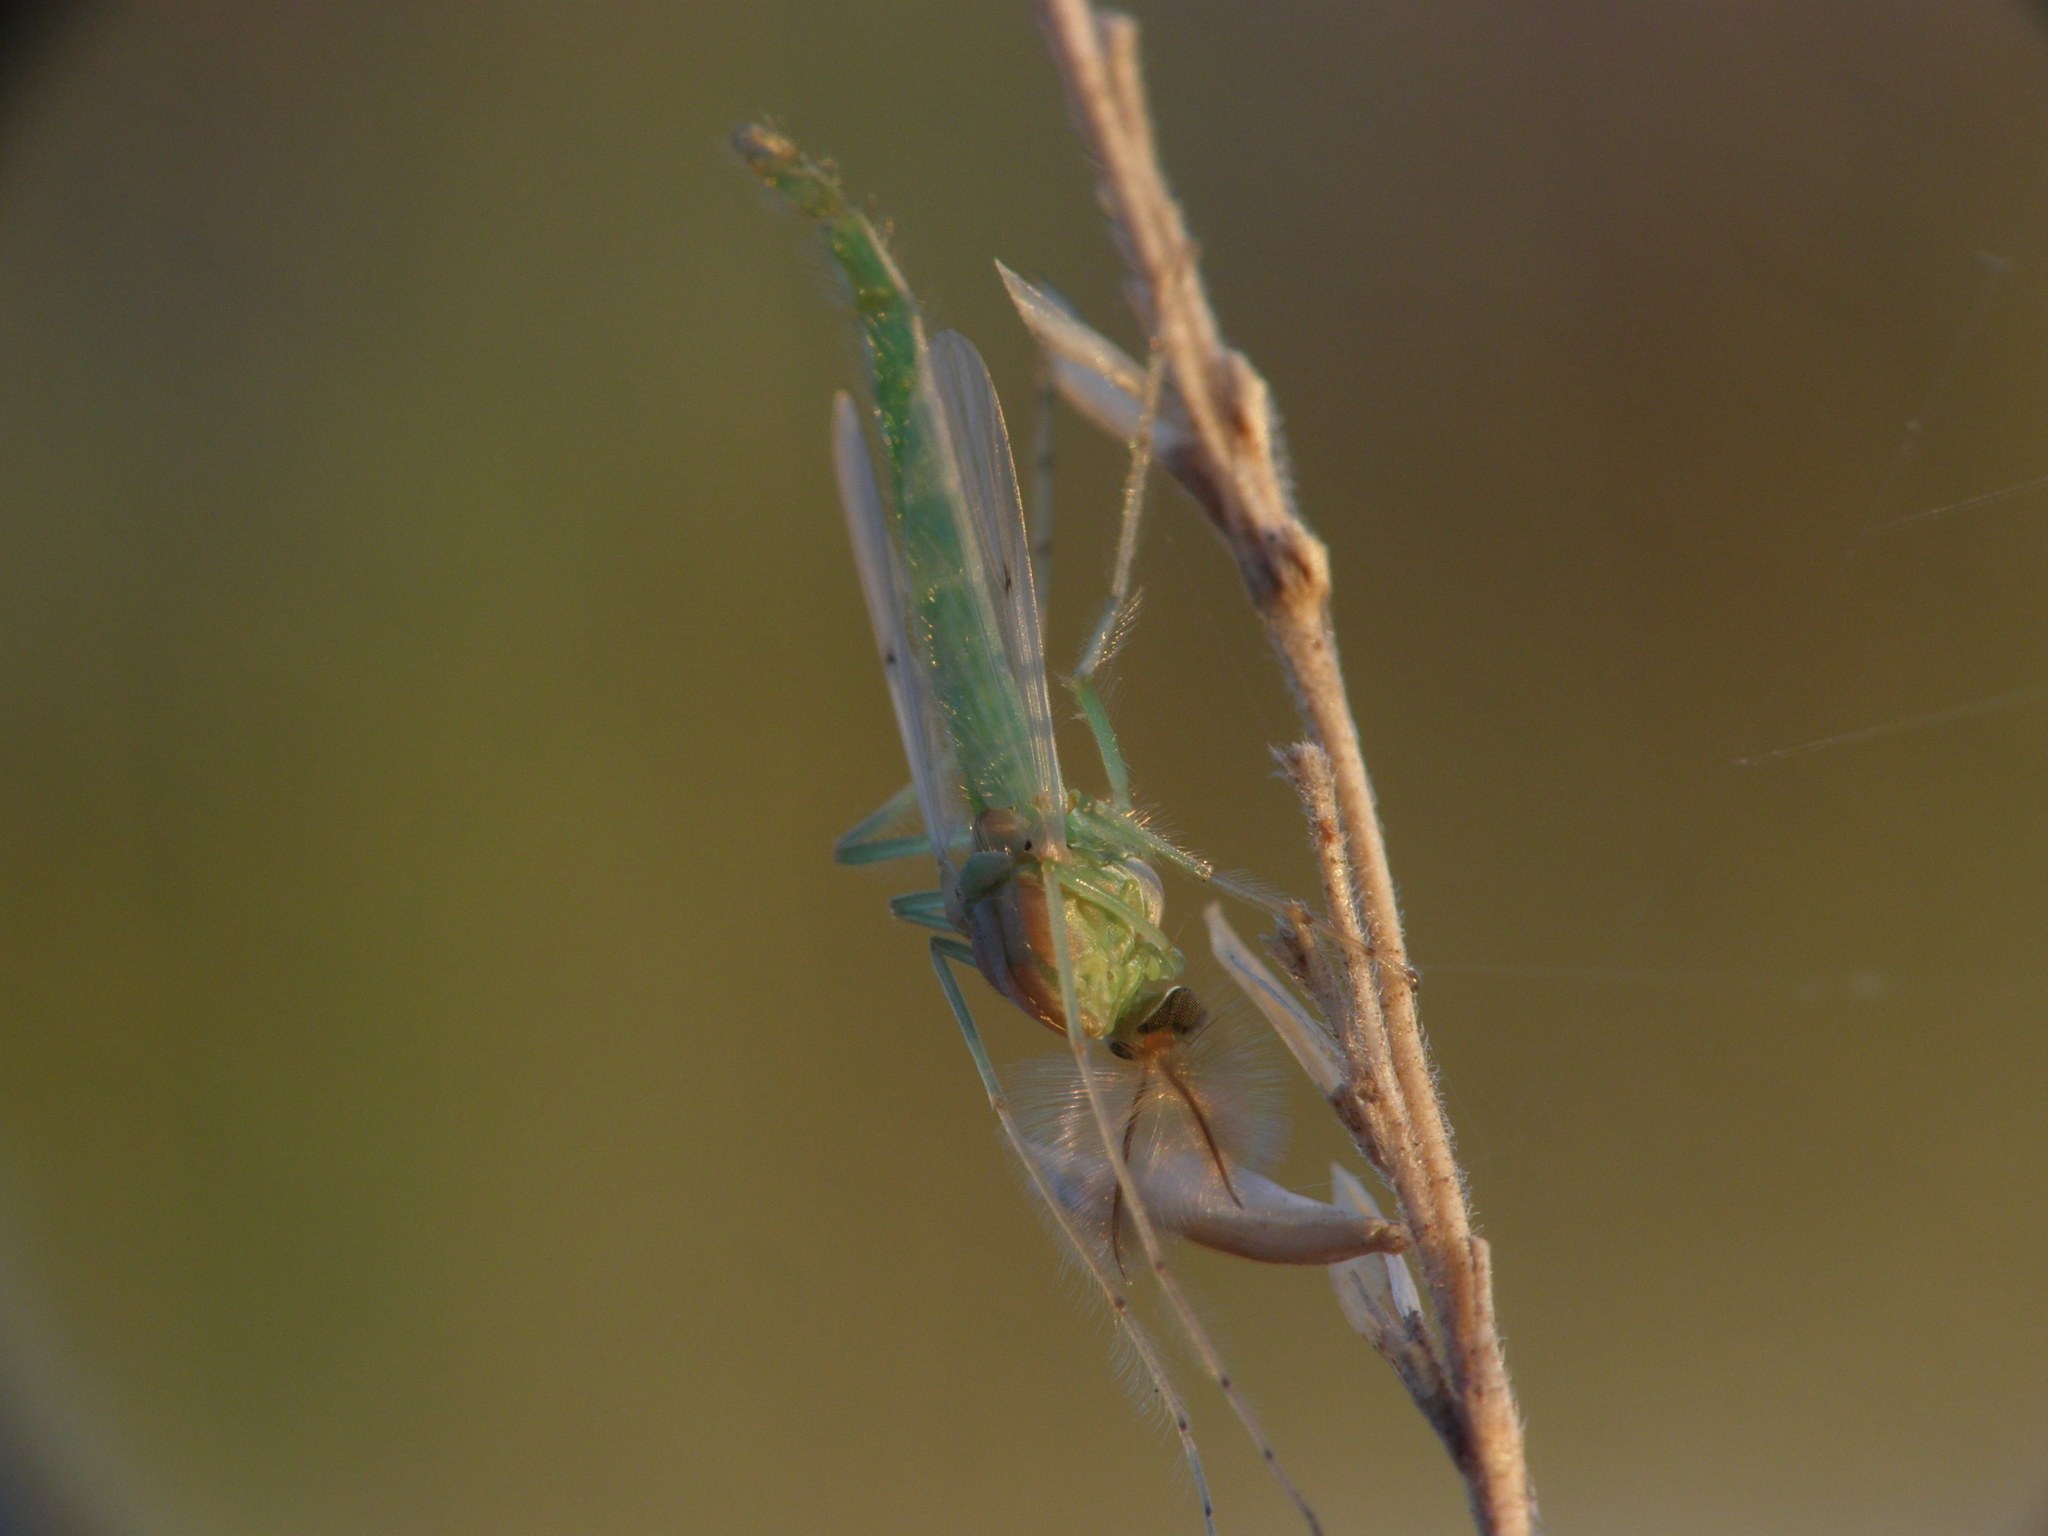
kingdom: Animalia
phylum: Arthropoda
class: Insecta
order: Diptera
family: Chironomidae
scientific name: Chironomidae
